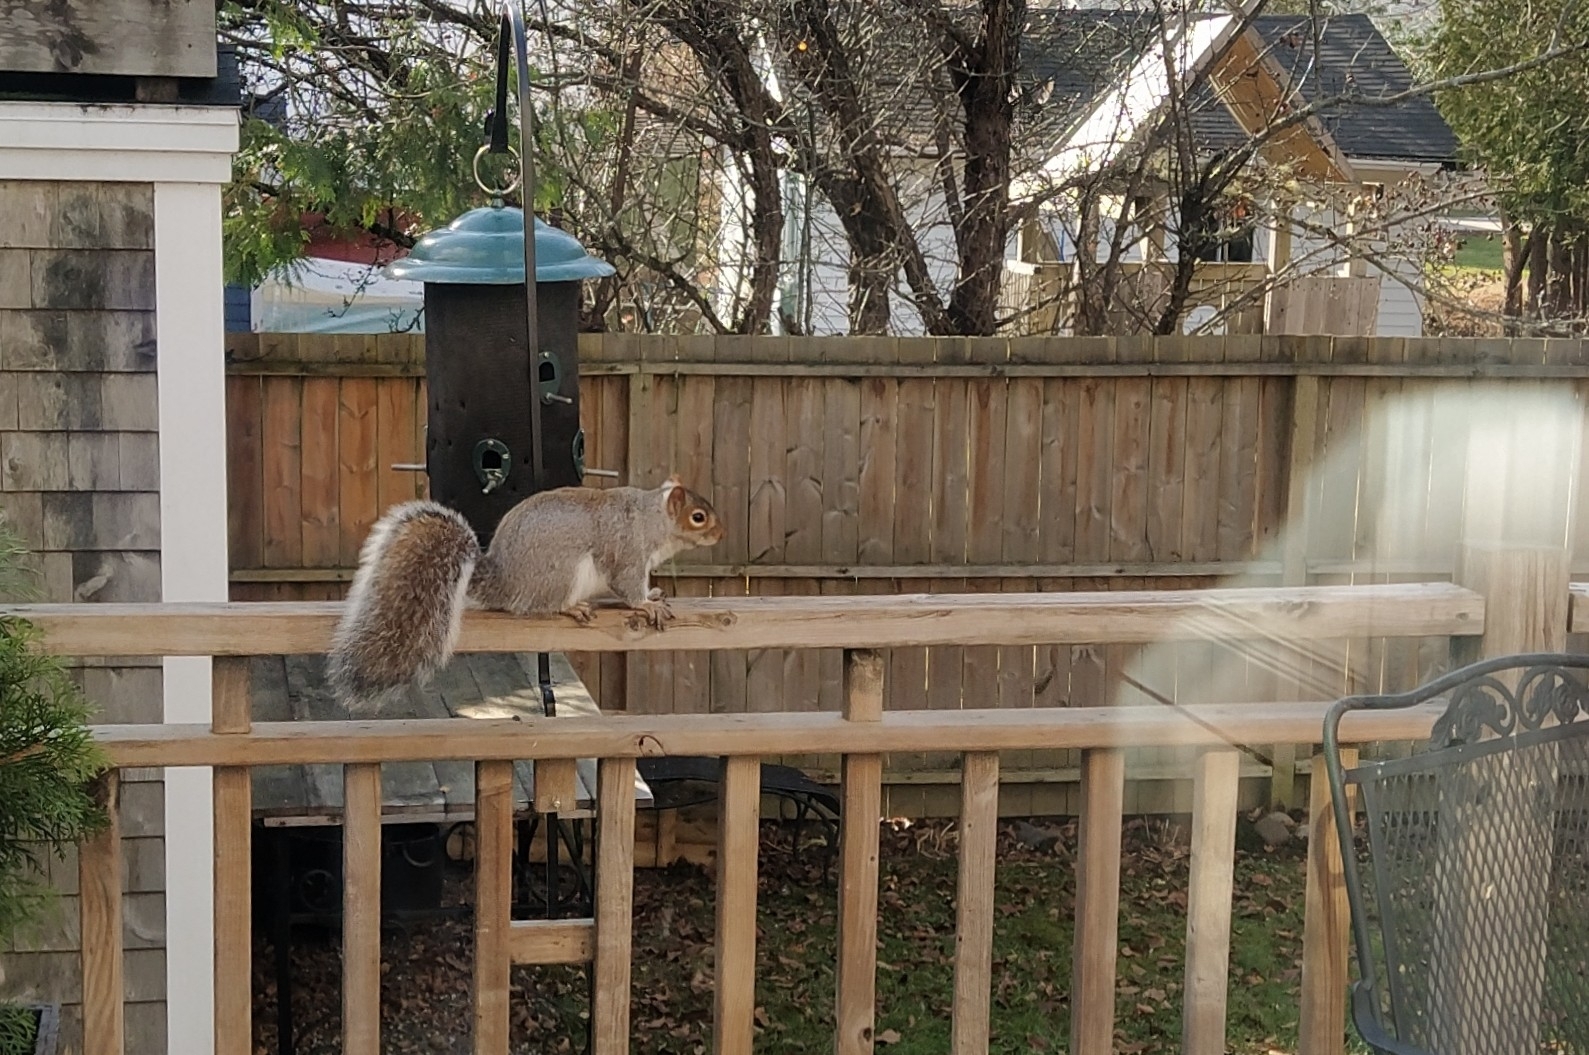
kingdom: Animalia
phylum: Chordata
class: Mammalia
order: Rodentia
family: Sciuridae
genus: Sciurus
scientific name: Sciurus carolinensis
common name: Eastern gray squirrel
